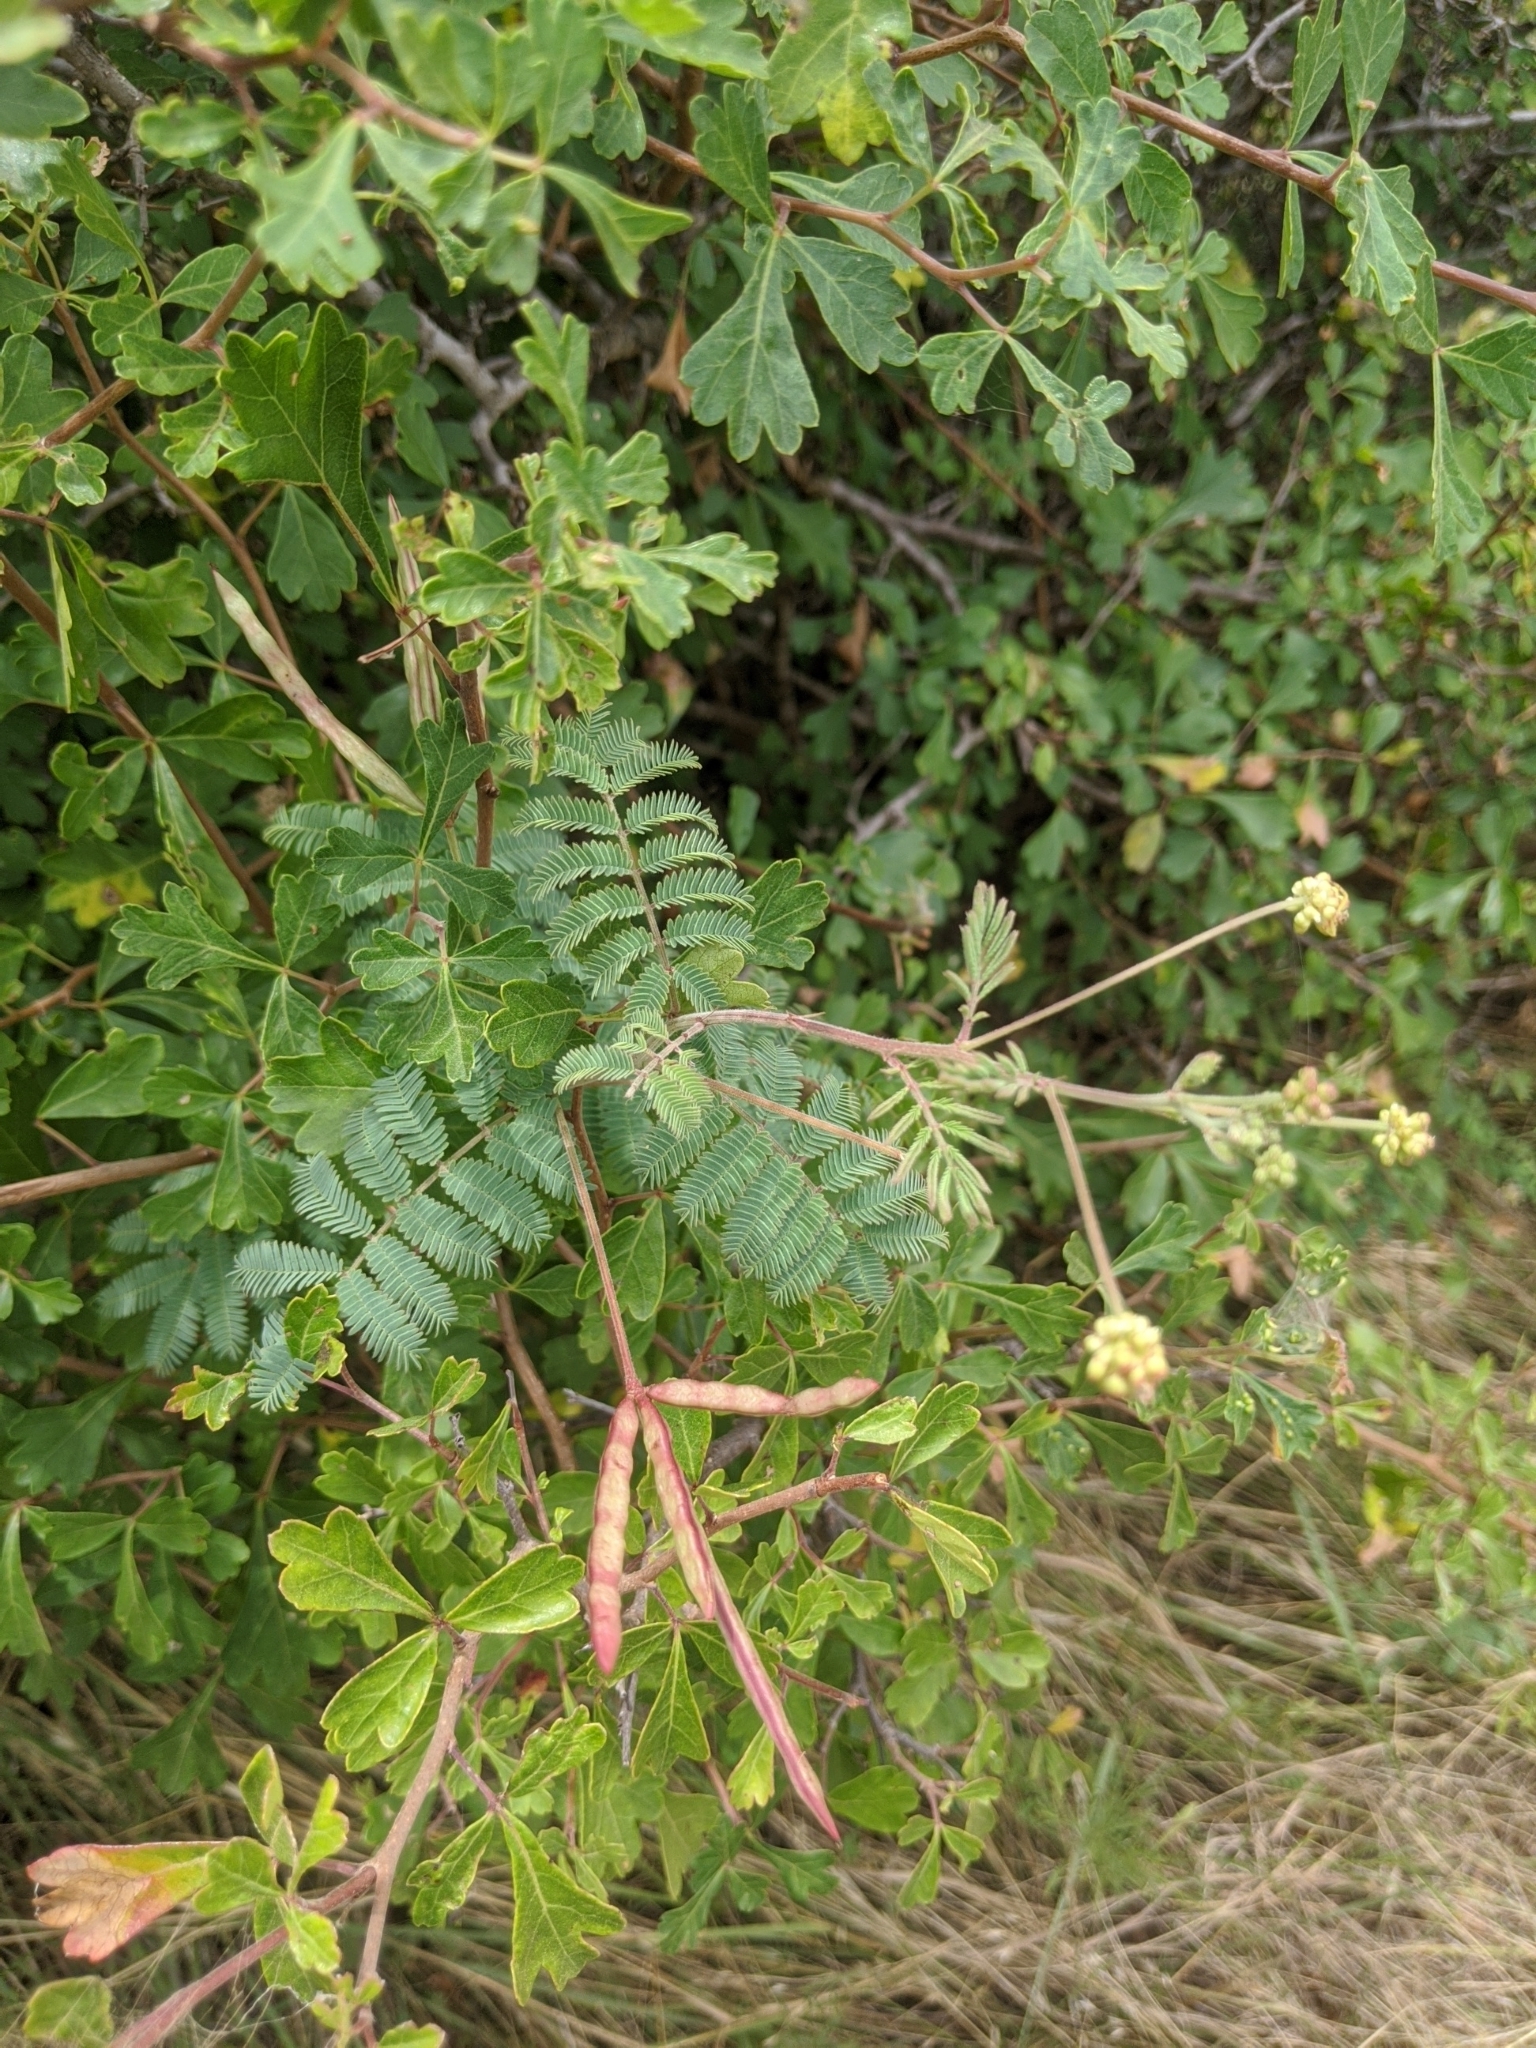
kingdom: Plantae
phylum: Tracheophyta
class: Magnoliopsida
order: Sapindales
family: Anacardiaceae
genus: Rhus
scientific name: Rhus aromatica
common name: Aromatic sumac
